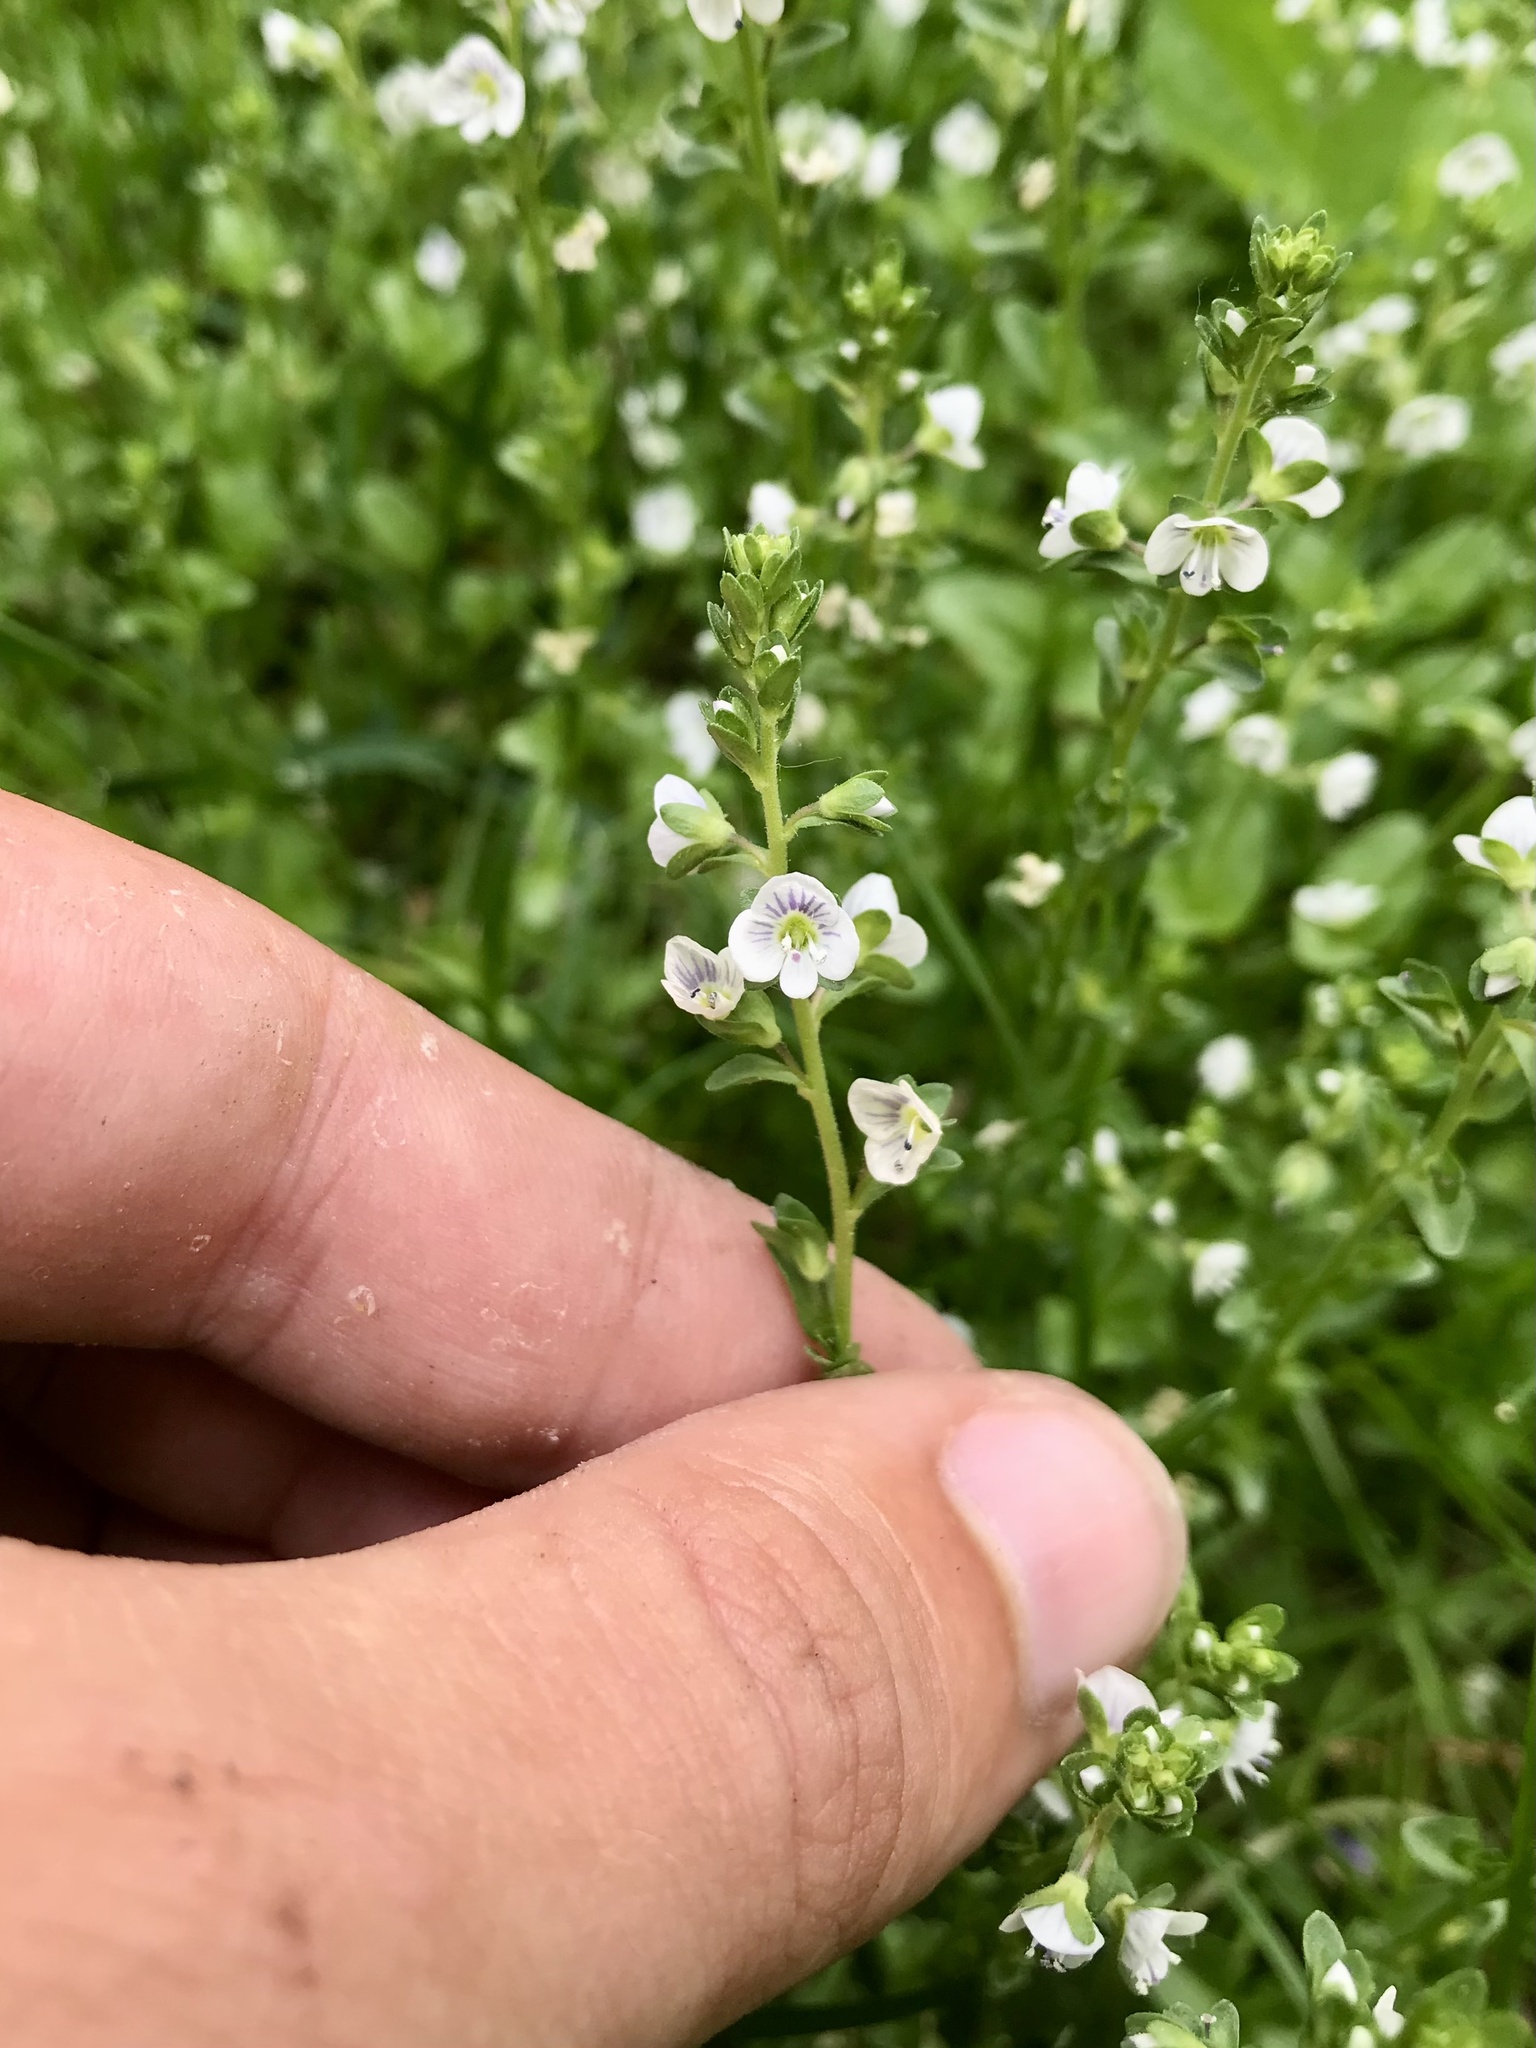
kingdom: Plantae
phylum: Tracheophyta
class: Magnoliopsida
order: Lamiales
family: Plantaginaceae
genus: Veronica
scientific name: Veronica serpyllifolia
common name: Thyme-leaved speedwell
